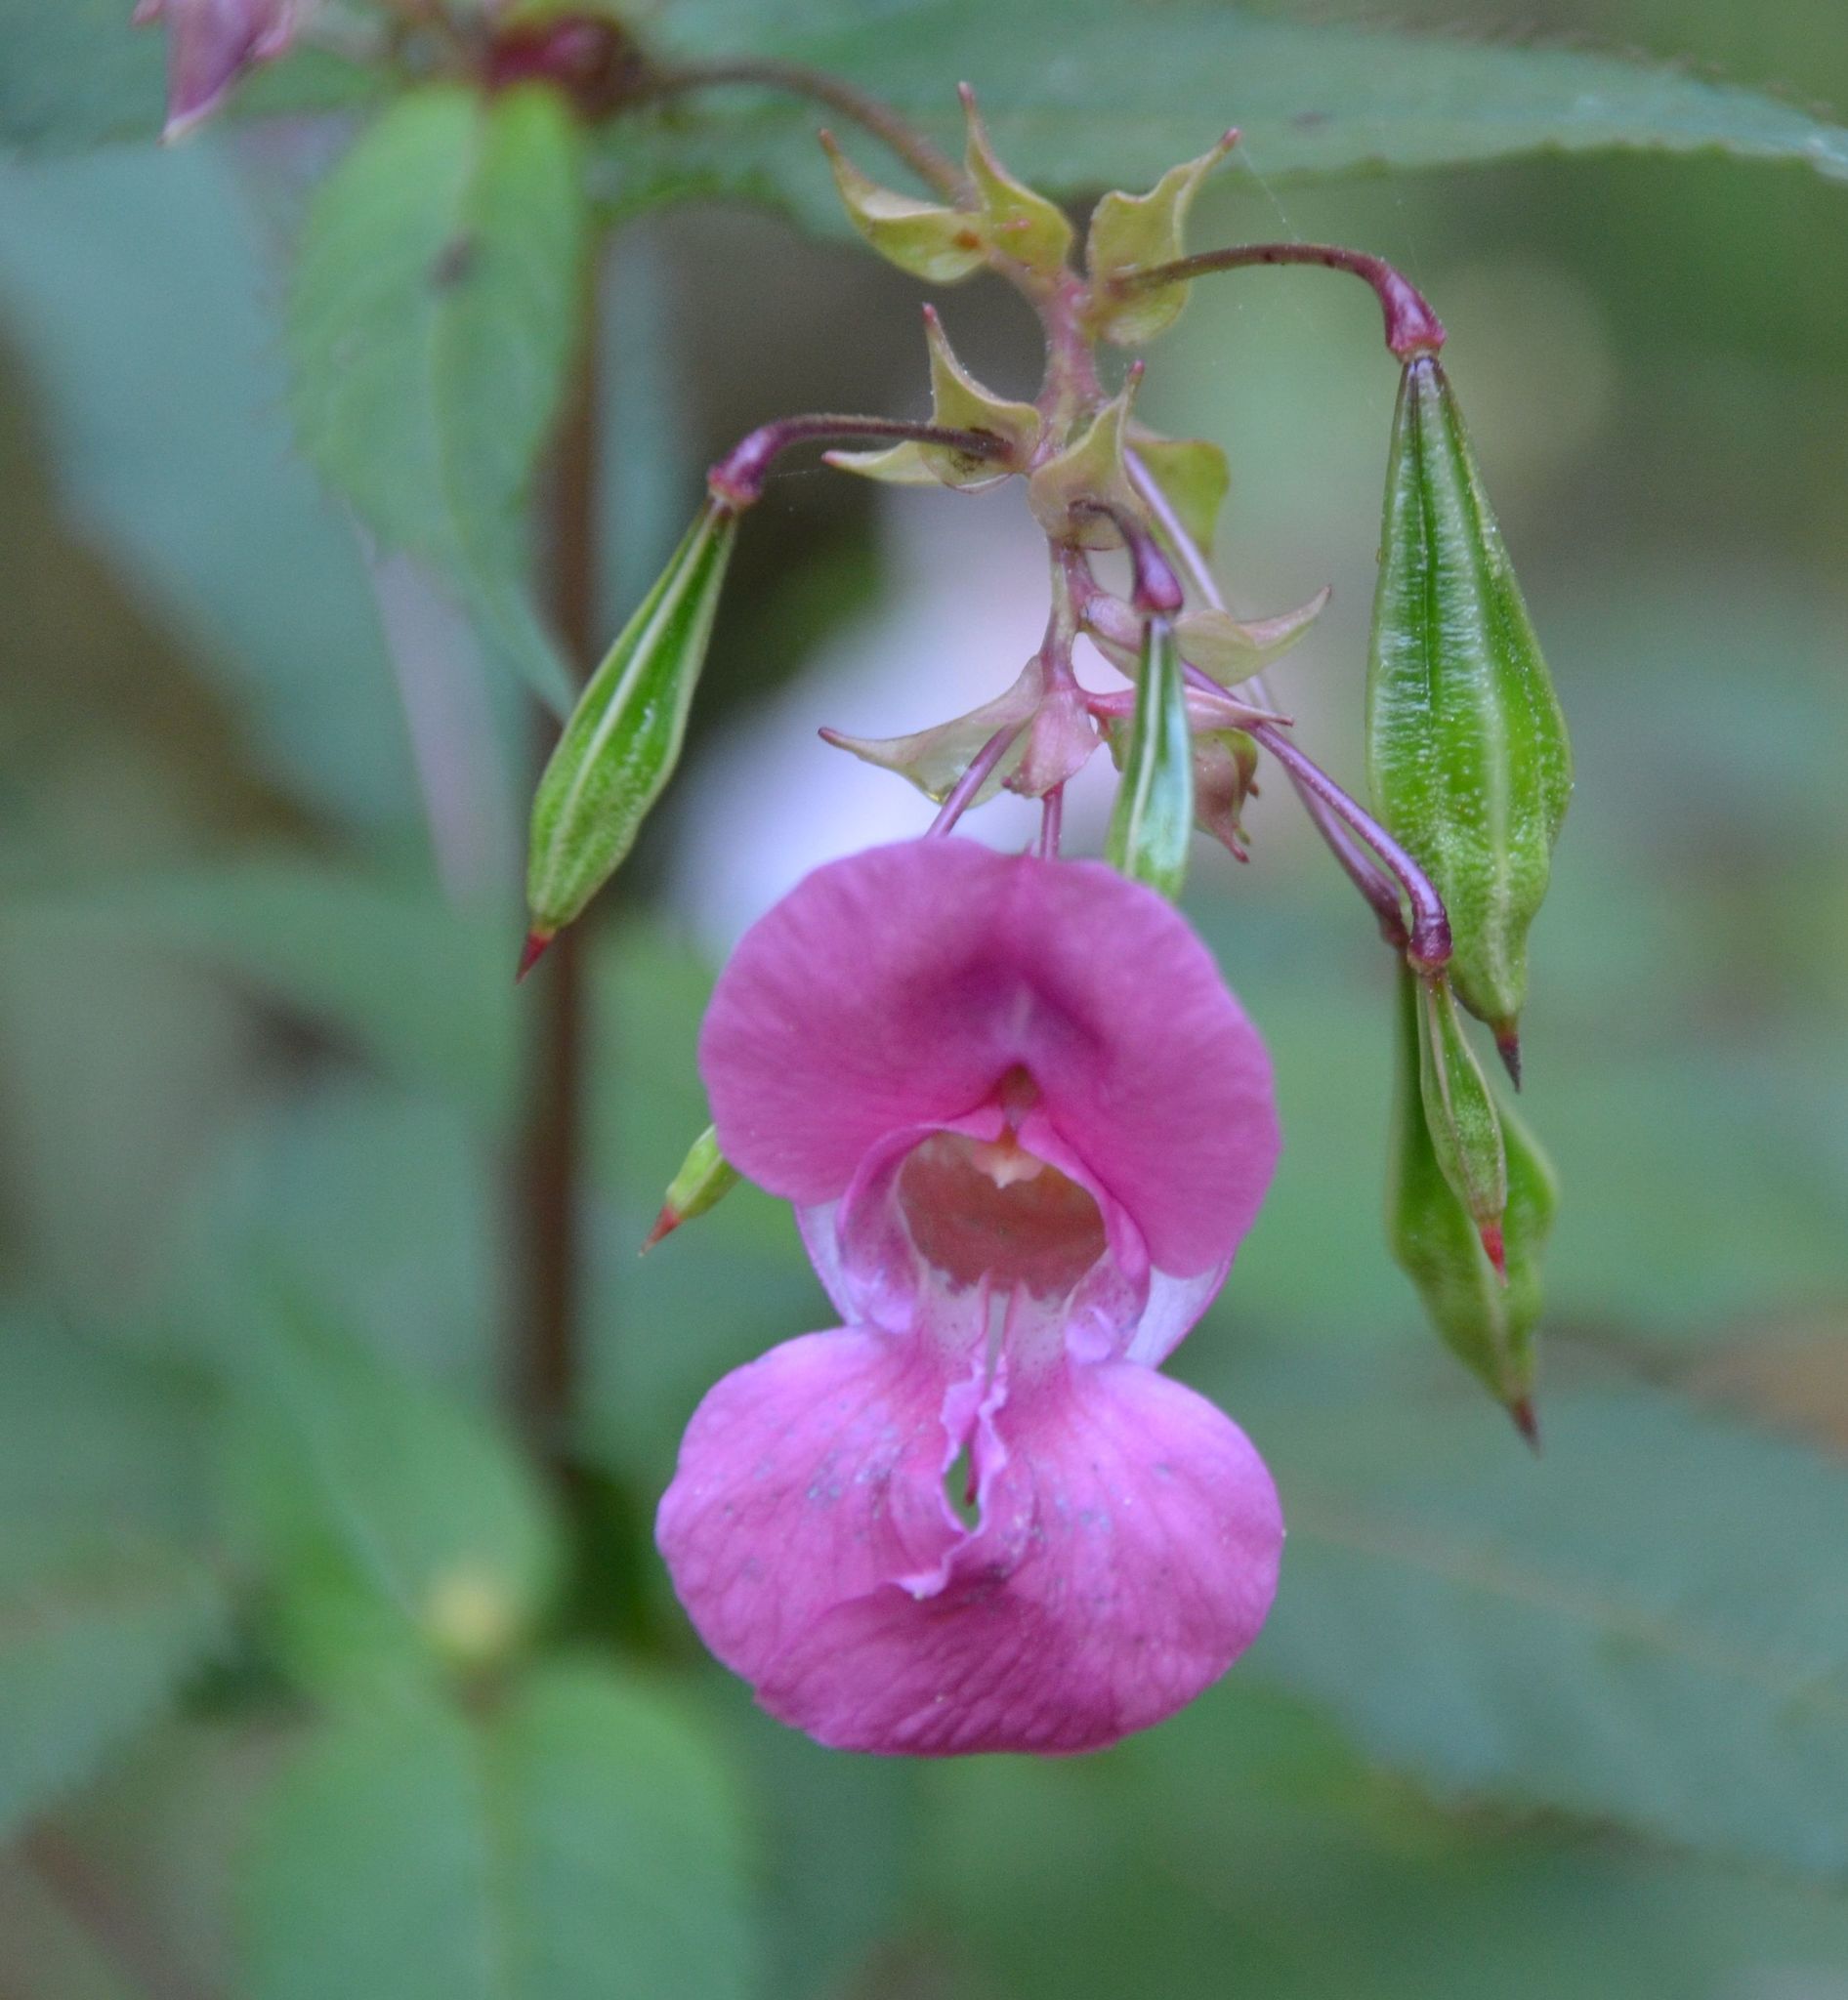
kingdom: Plantae
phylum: Tracheophyta
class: Magnoliopsida
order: Ericales
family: Balsaminaceae
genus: Impatiens
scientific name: Impatiens glandulifera
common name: Himalayan balsam
